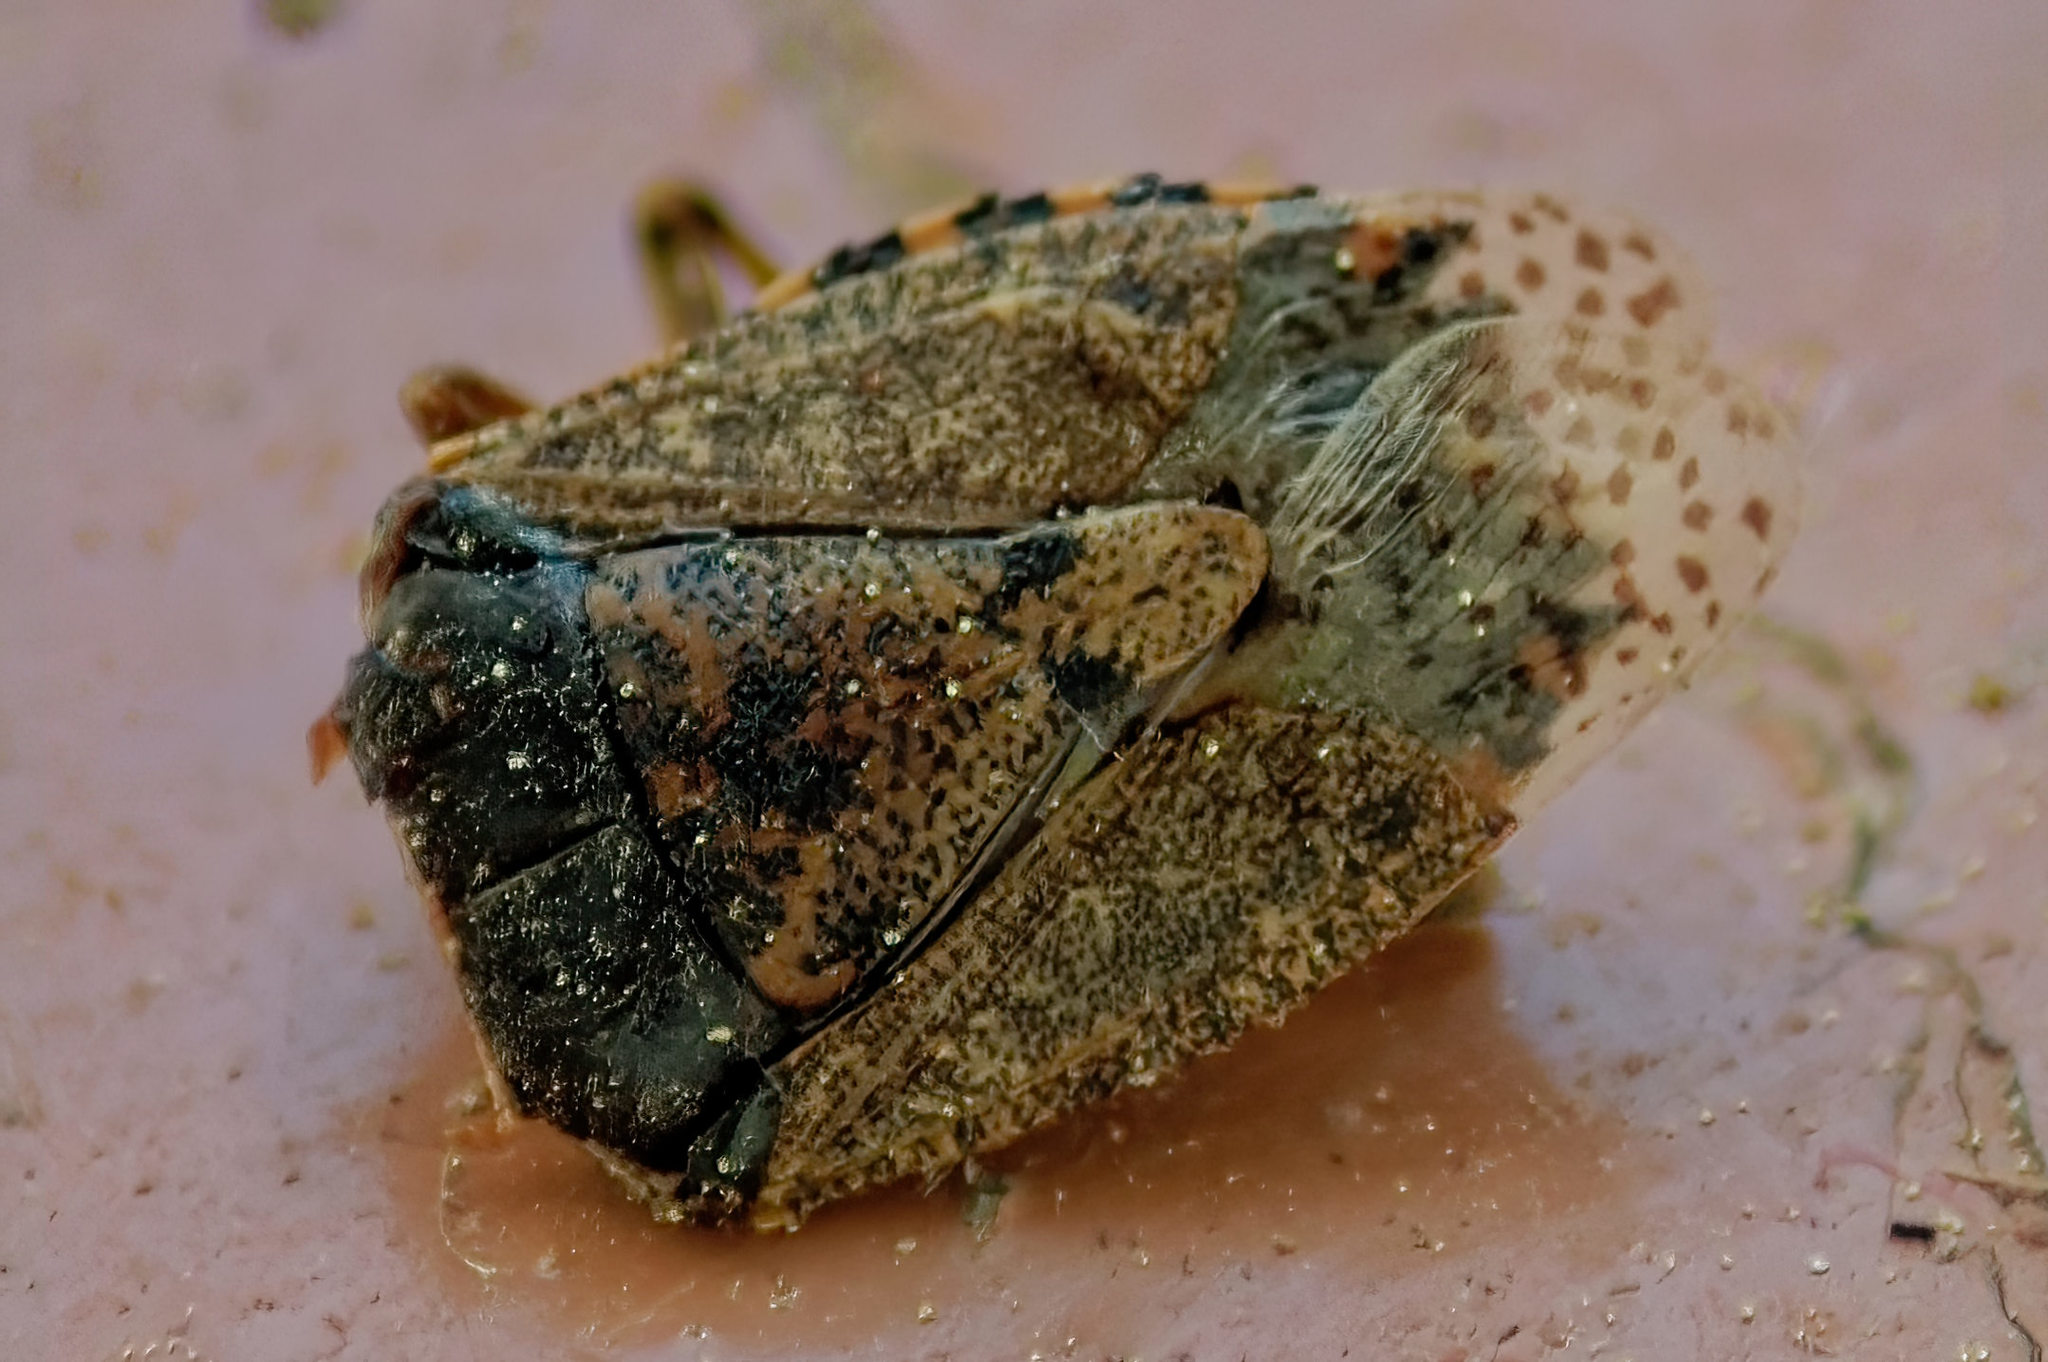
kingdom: Animalia
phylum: Arthropoda
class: Insecta
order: Hemiptera
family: Pentatomidae
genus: Rhaphigaster
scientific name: Rhaphigaster nebulosa
